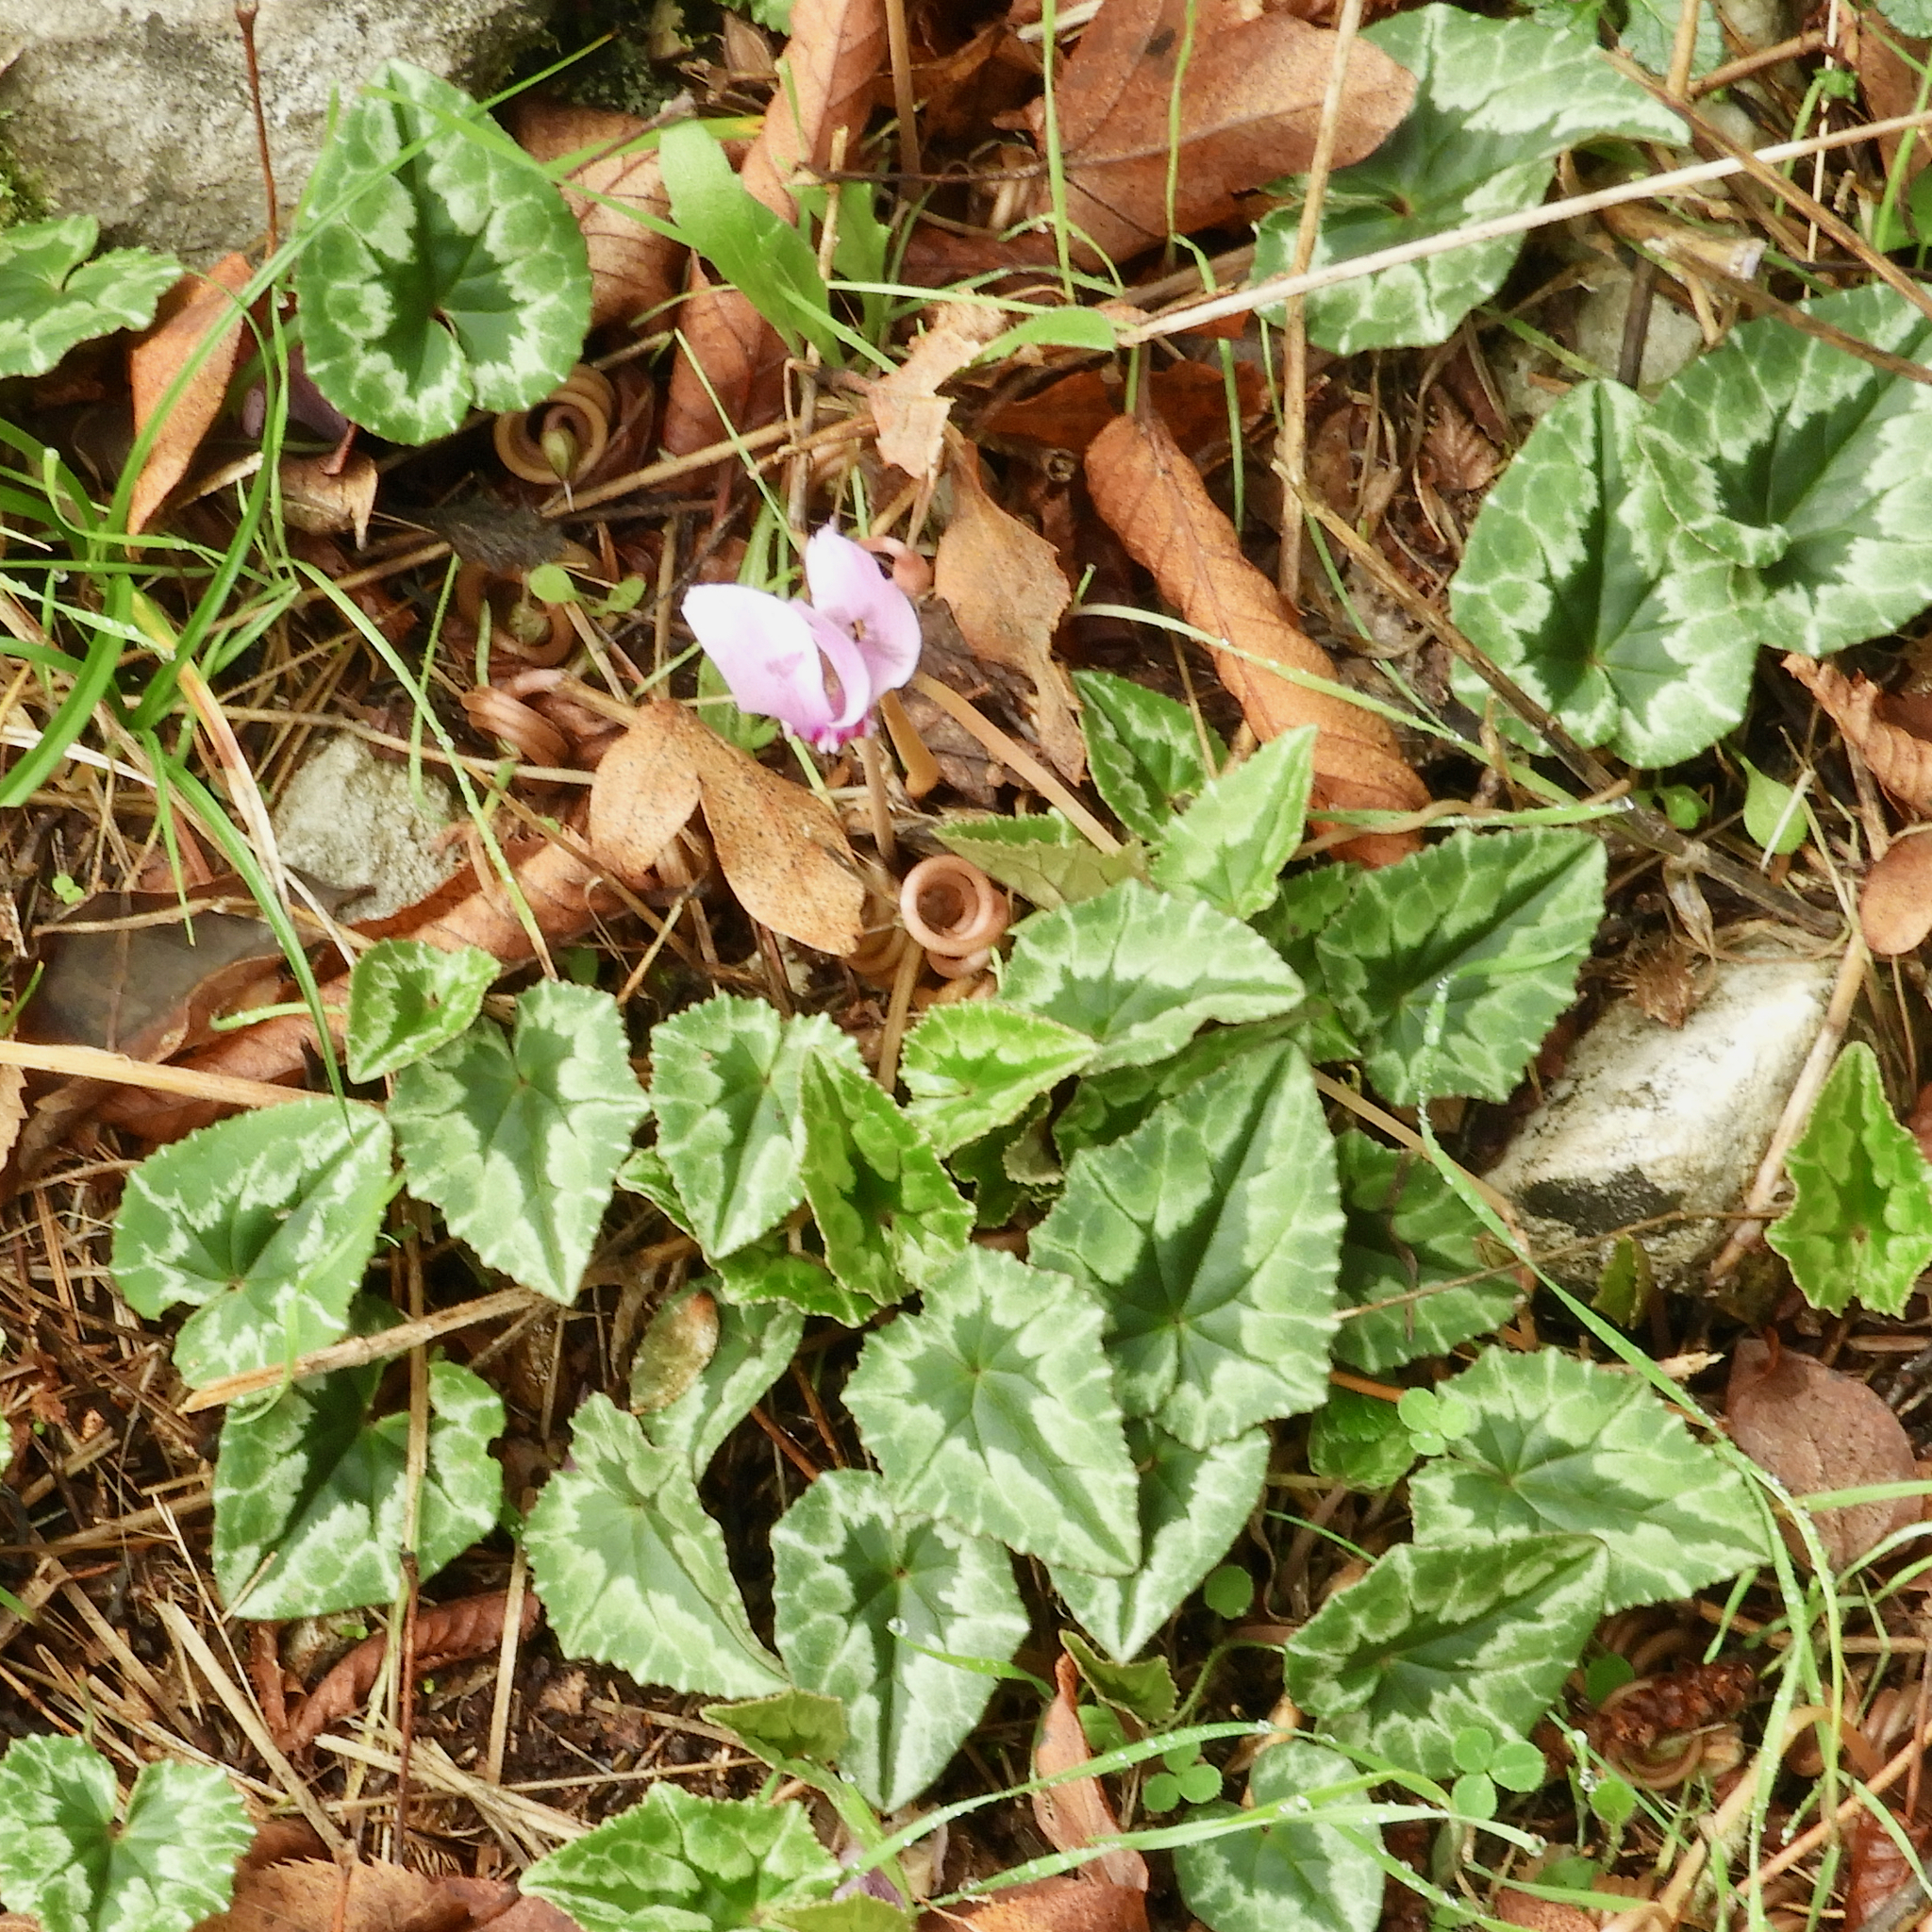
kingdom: Plantae
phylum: Tracheophyta
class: Magnoliopsida
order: Ericales
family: Primulaceae
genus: Cyclamen
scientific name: Cyclamen hederifolium
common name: Sowbread
